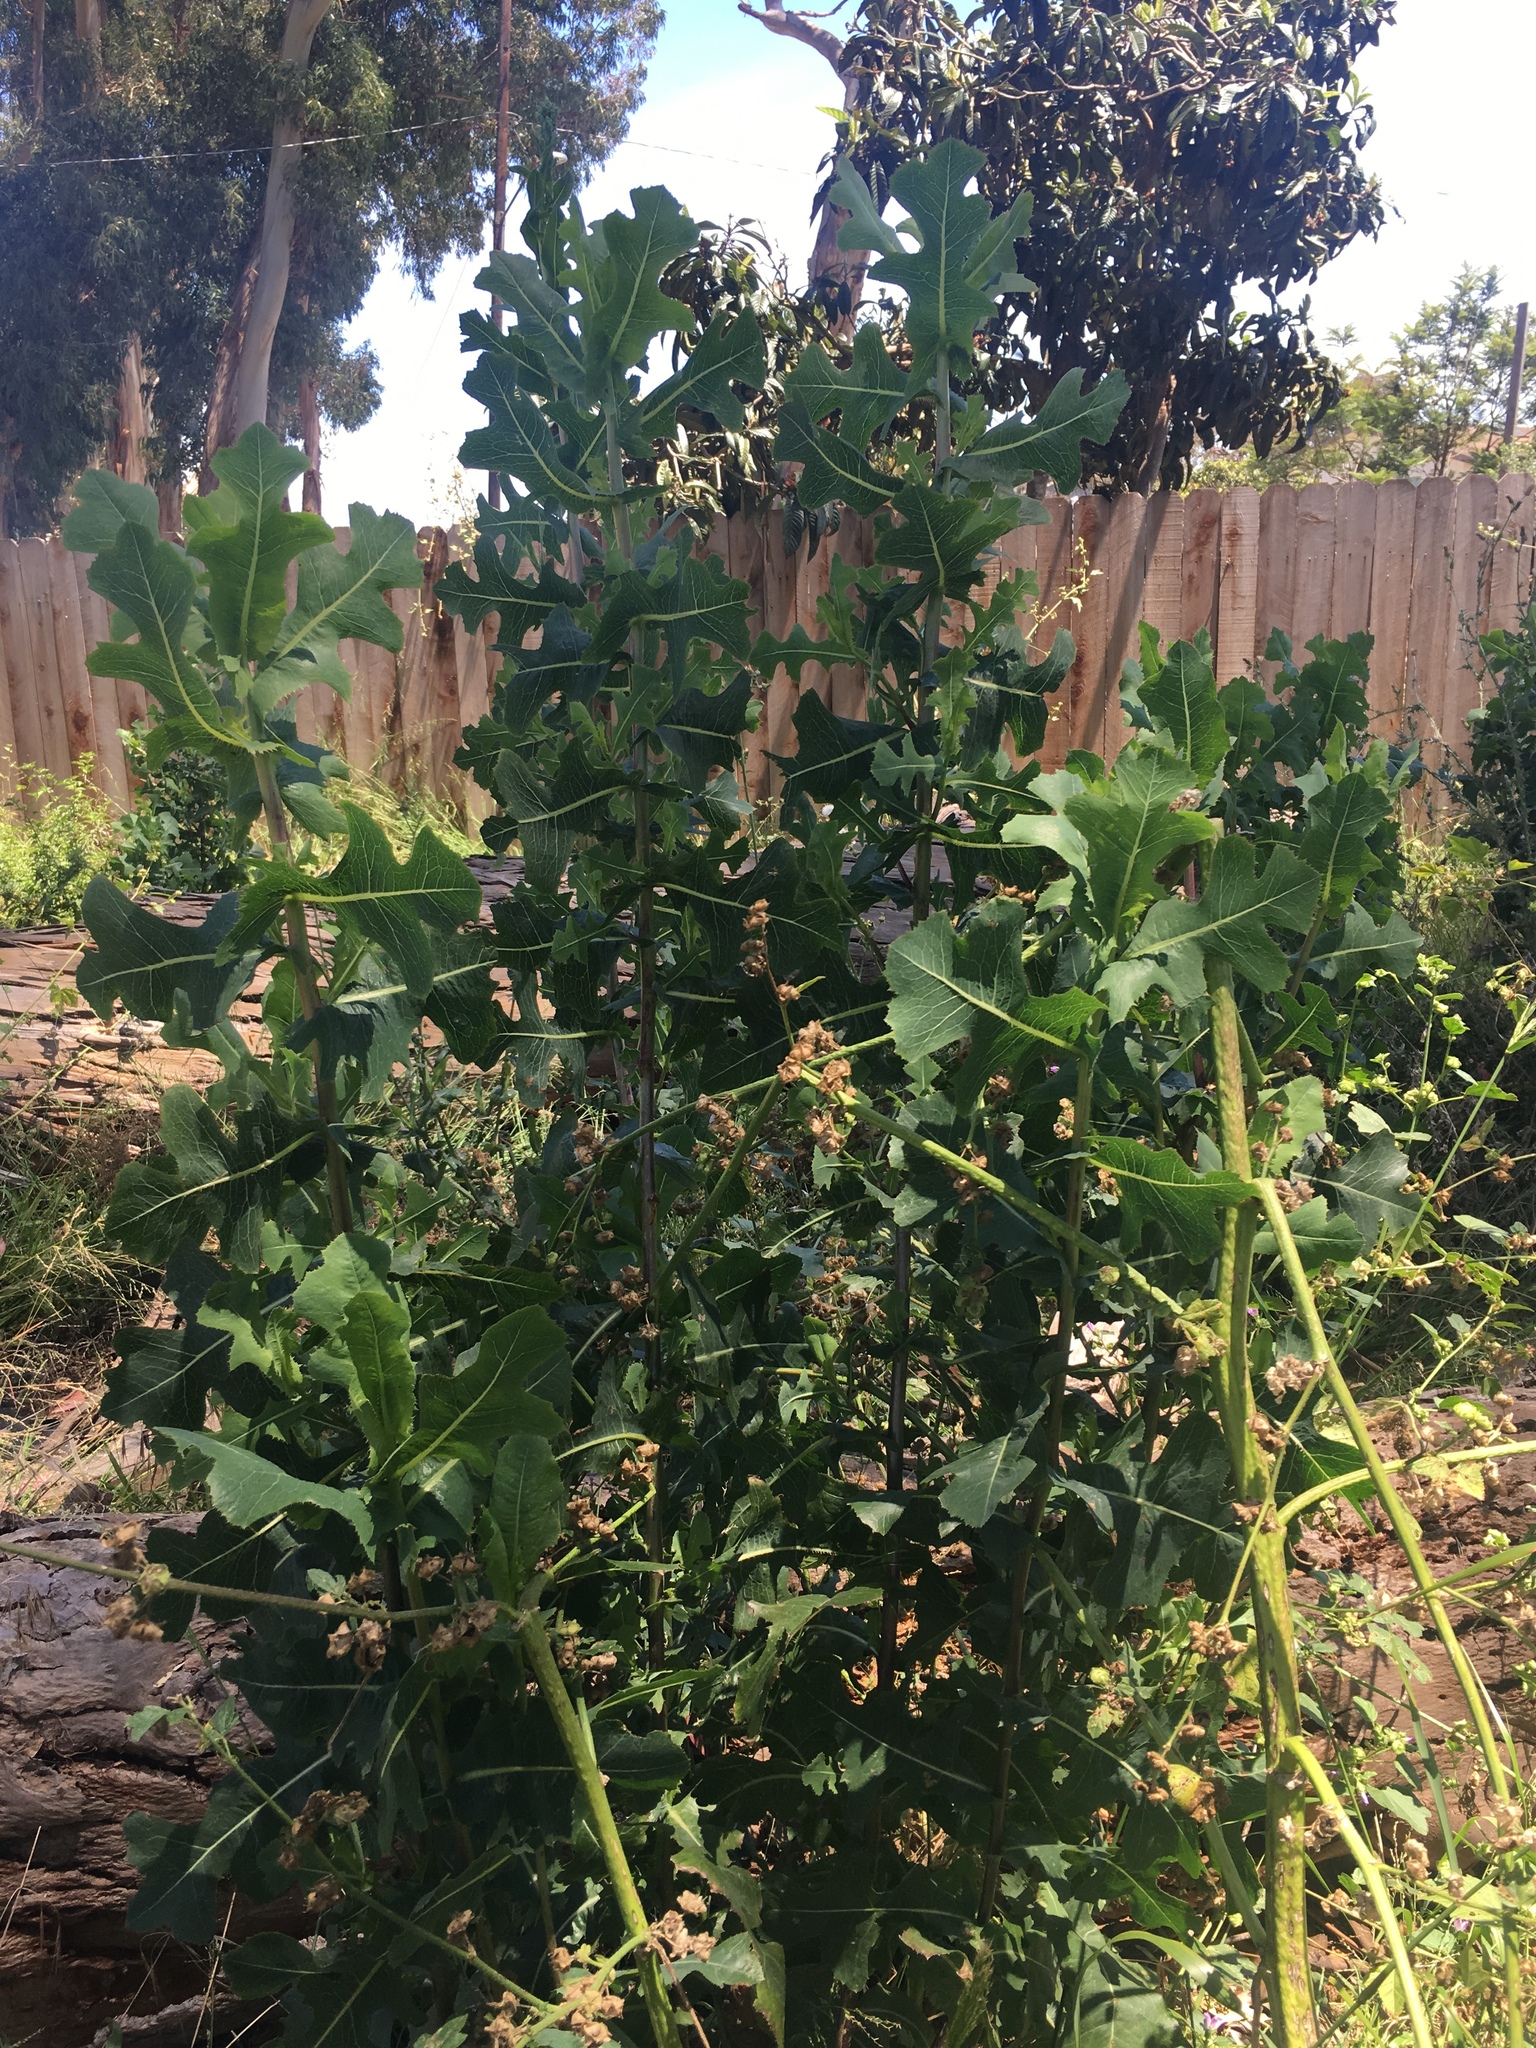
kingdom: Plantae
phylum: Tracheophyta
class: Magnoliopsida
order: Asterales
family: Asteraceae
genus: Lactuca
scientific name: Lactuca serriola
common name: Prickly lettuce
